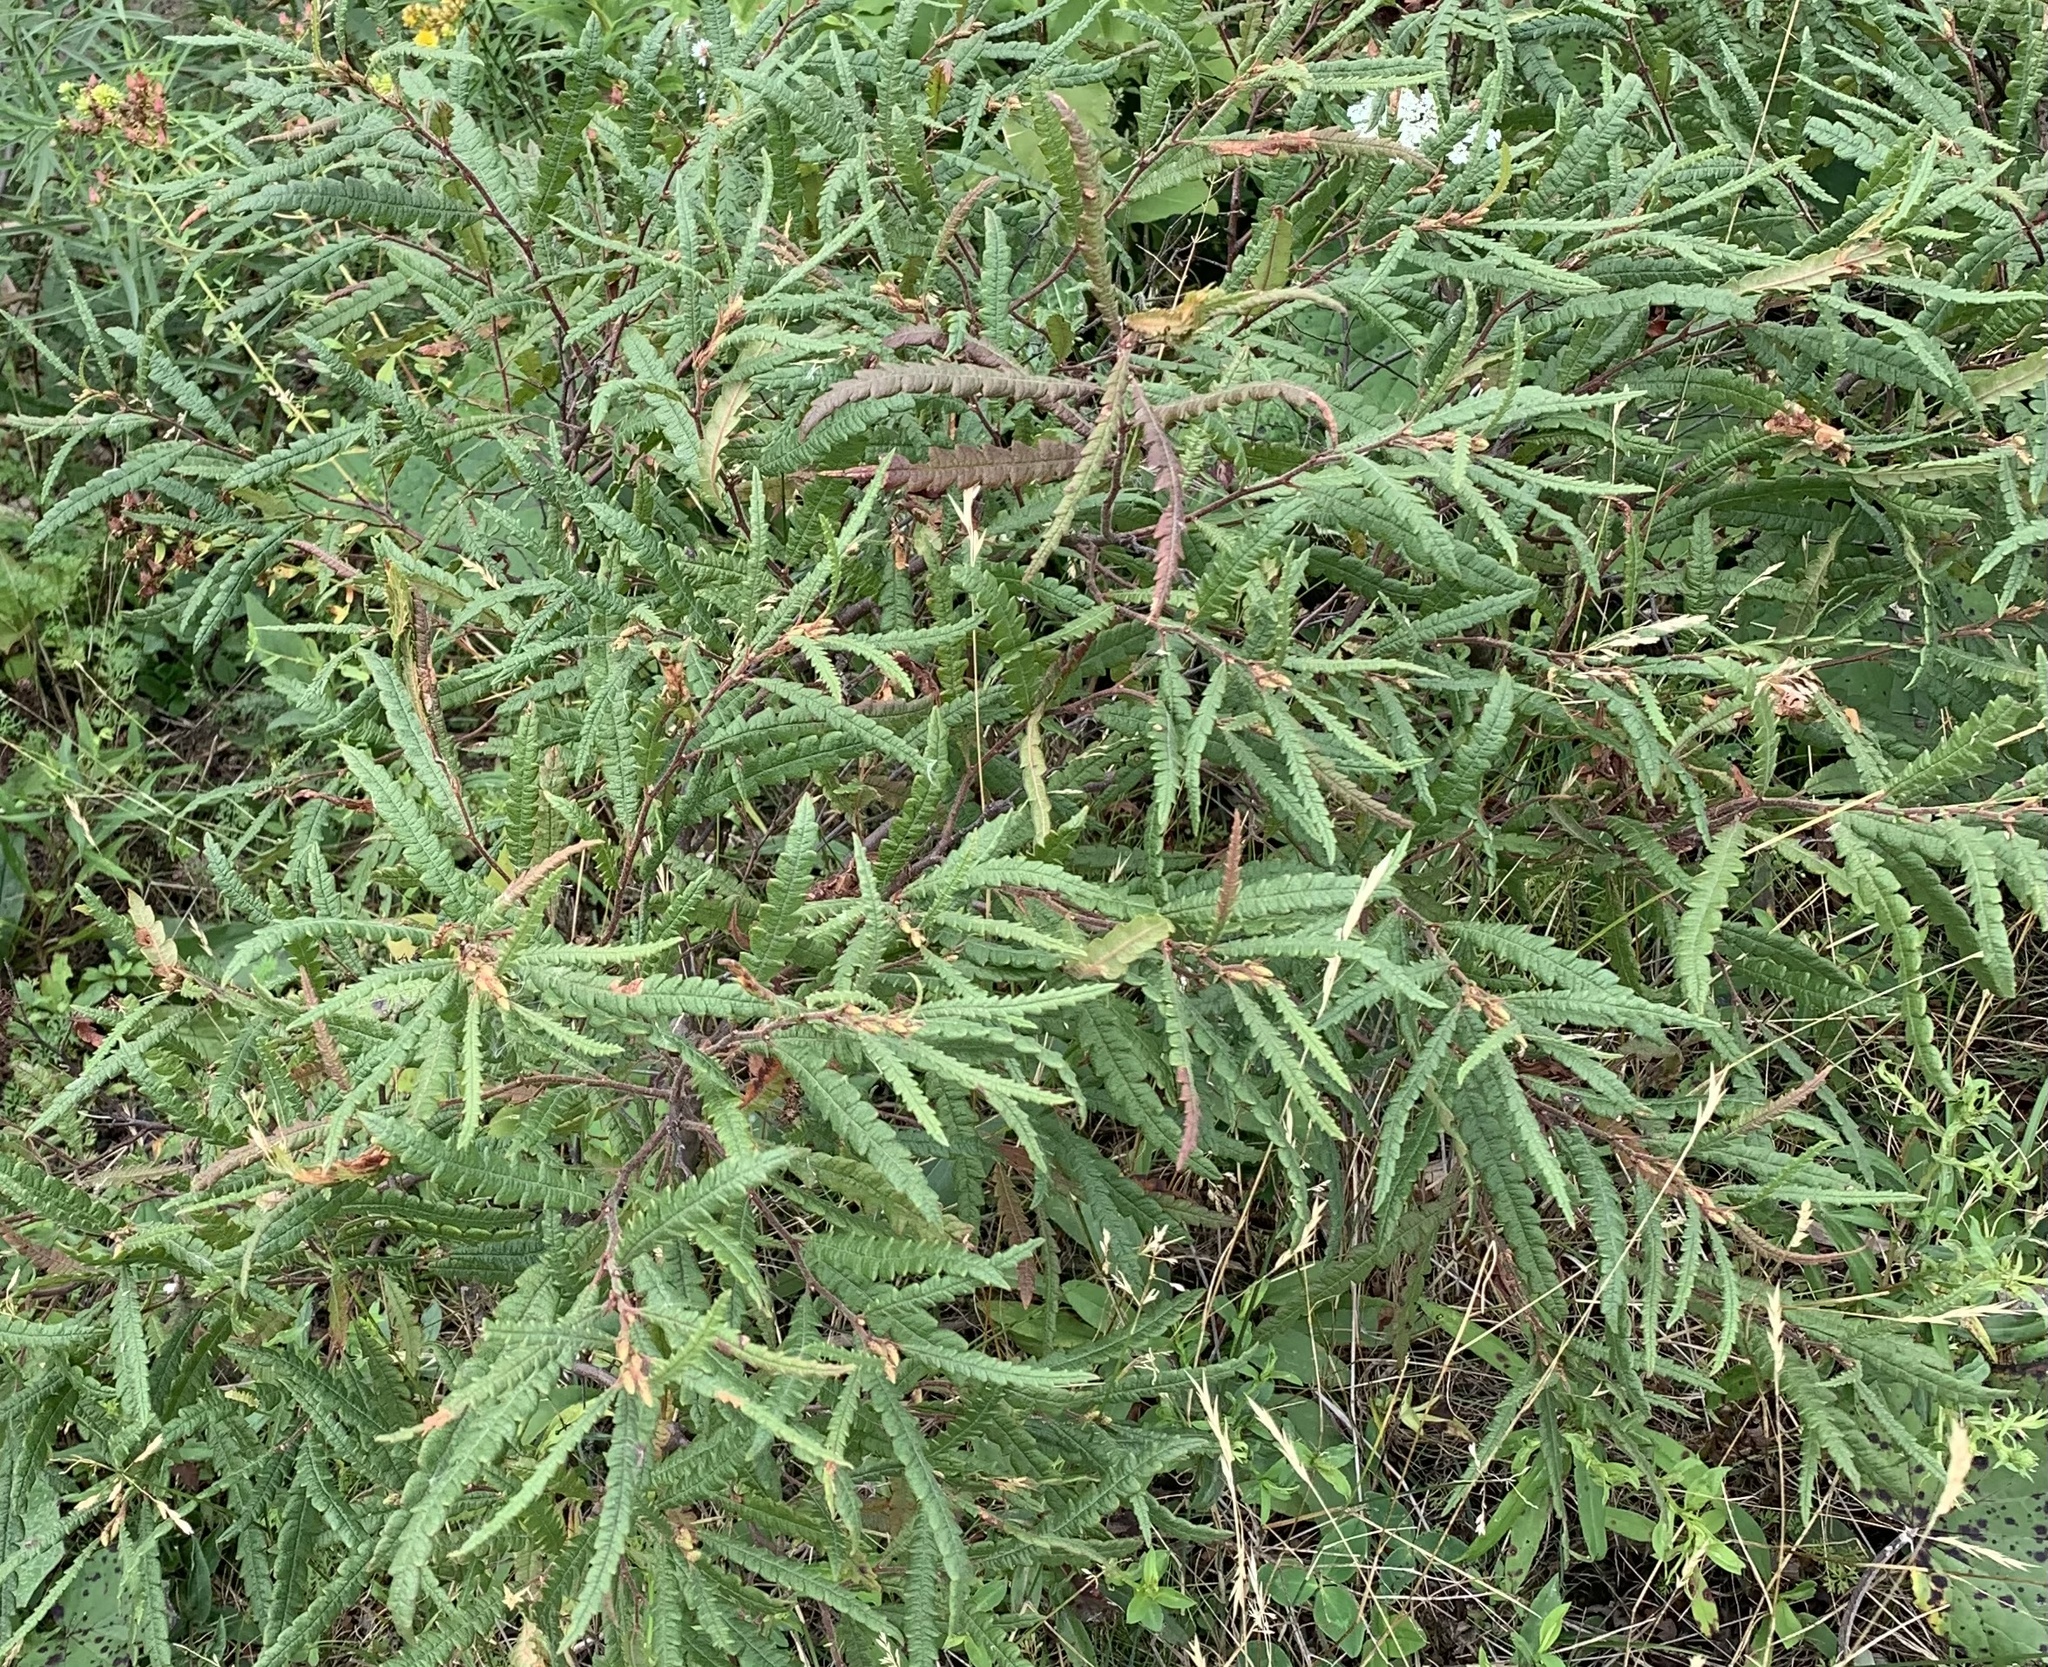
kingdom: Plantae
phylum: Tracheophyta
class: Magnoliopsida
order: Fagales
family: Myricaceae
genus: Comptonia
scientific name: Comptonia peregrina
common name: Sweet-fern
